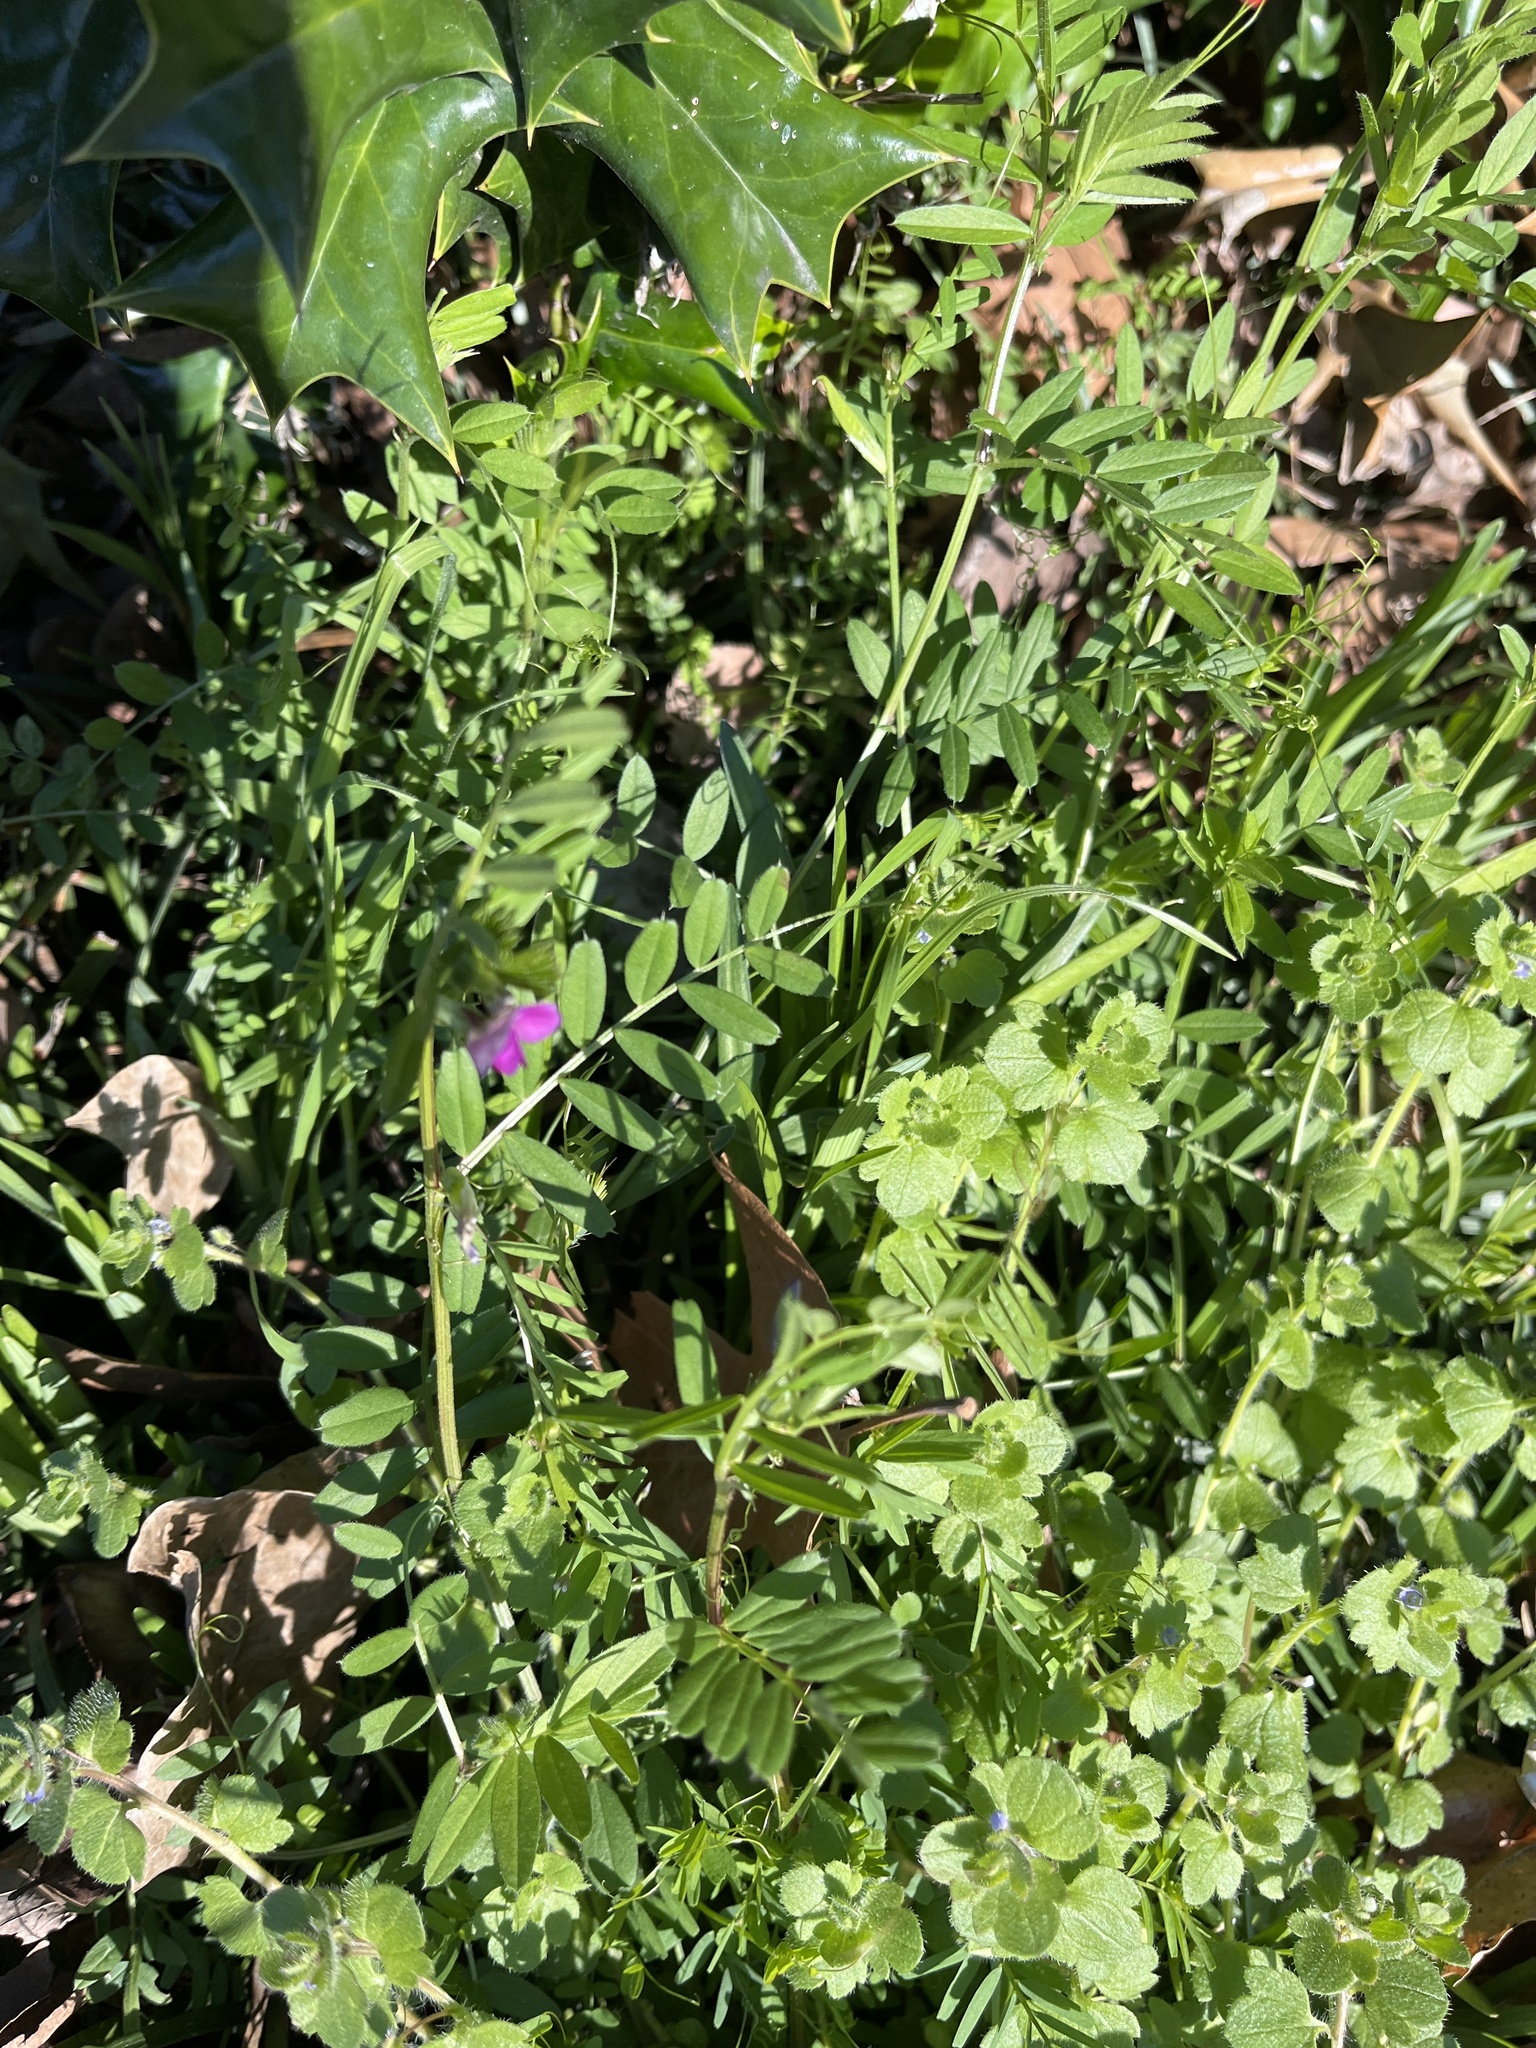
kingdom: Plantae
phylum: Tracheophyta
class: Magnoliopsida
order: Fabales
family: Fabaceae
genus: Vicia
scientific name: Vicia sativa
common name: Garden vetch
